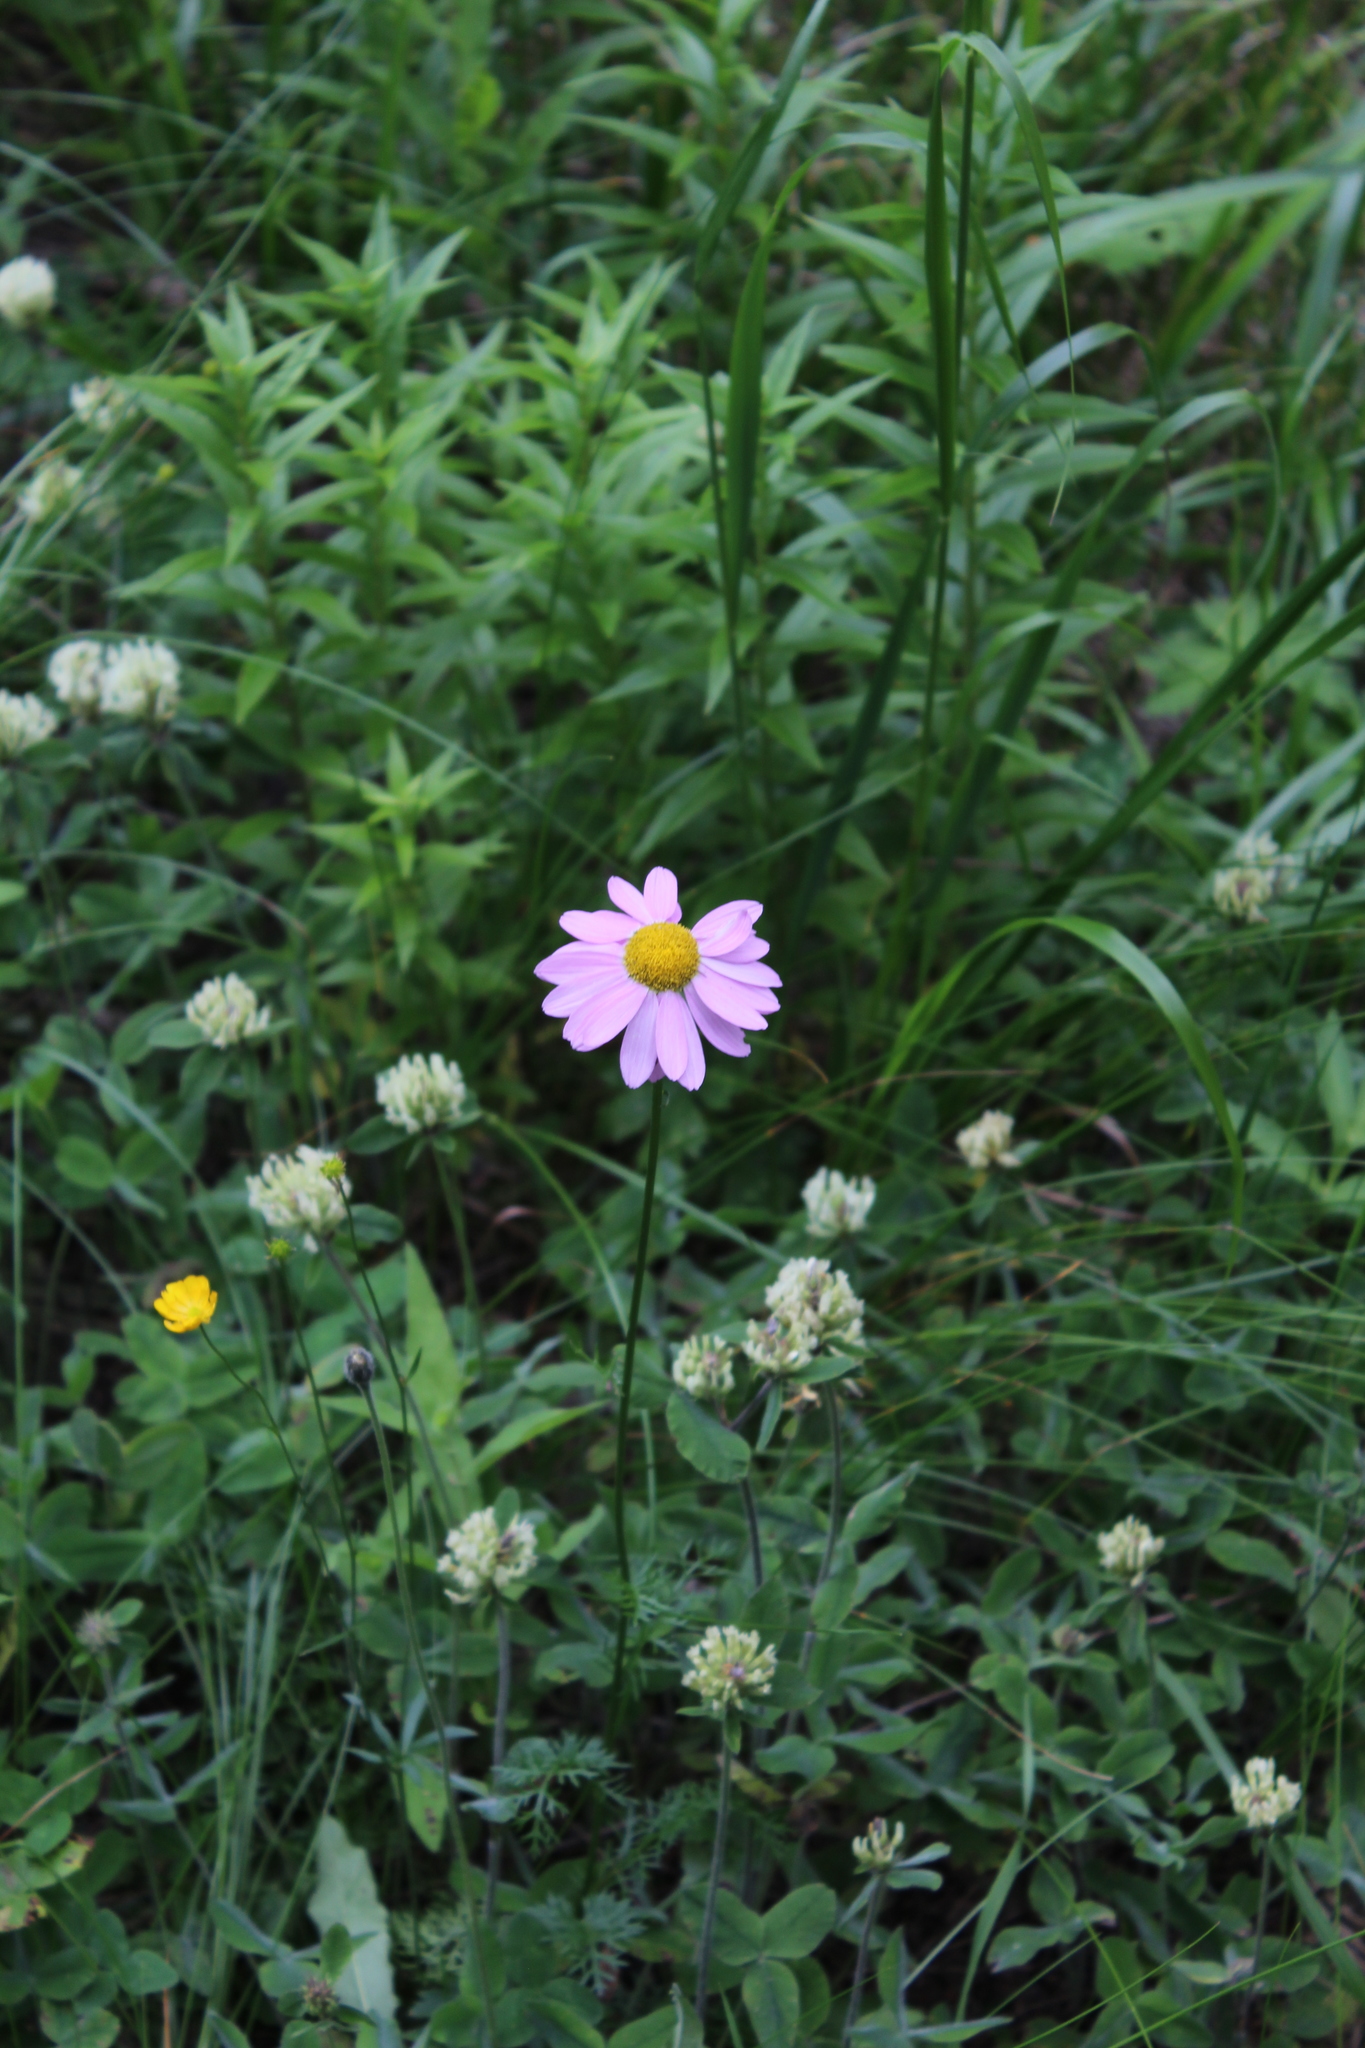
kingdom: Plantae
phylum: Tracheophyta
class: Magnoliopsida
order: Asterales
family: Asteraceae
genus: Tanacetum
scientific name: Tanacetum coccineum
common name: Pyrethum daisy
